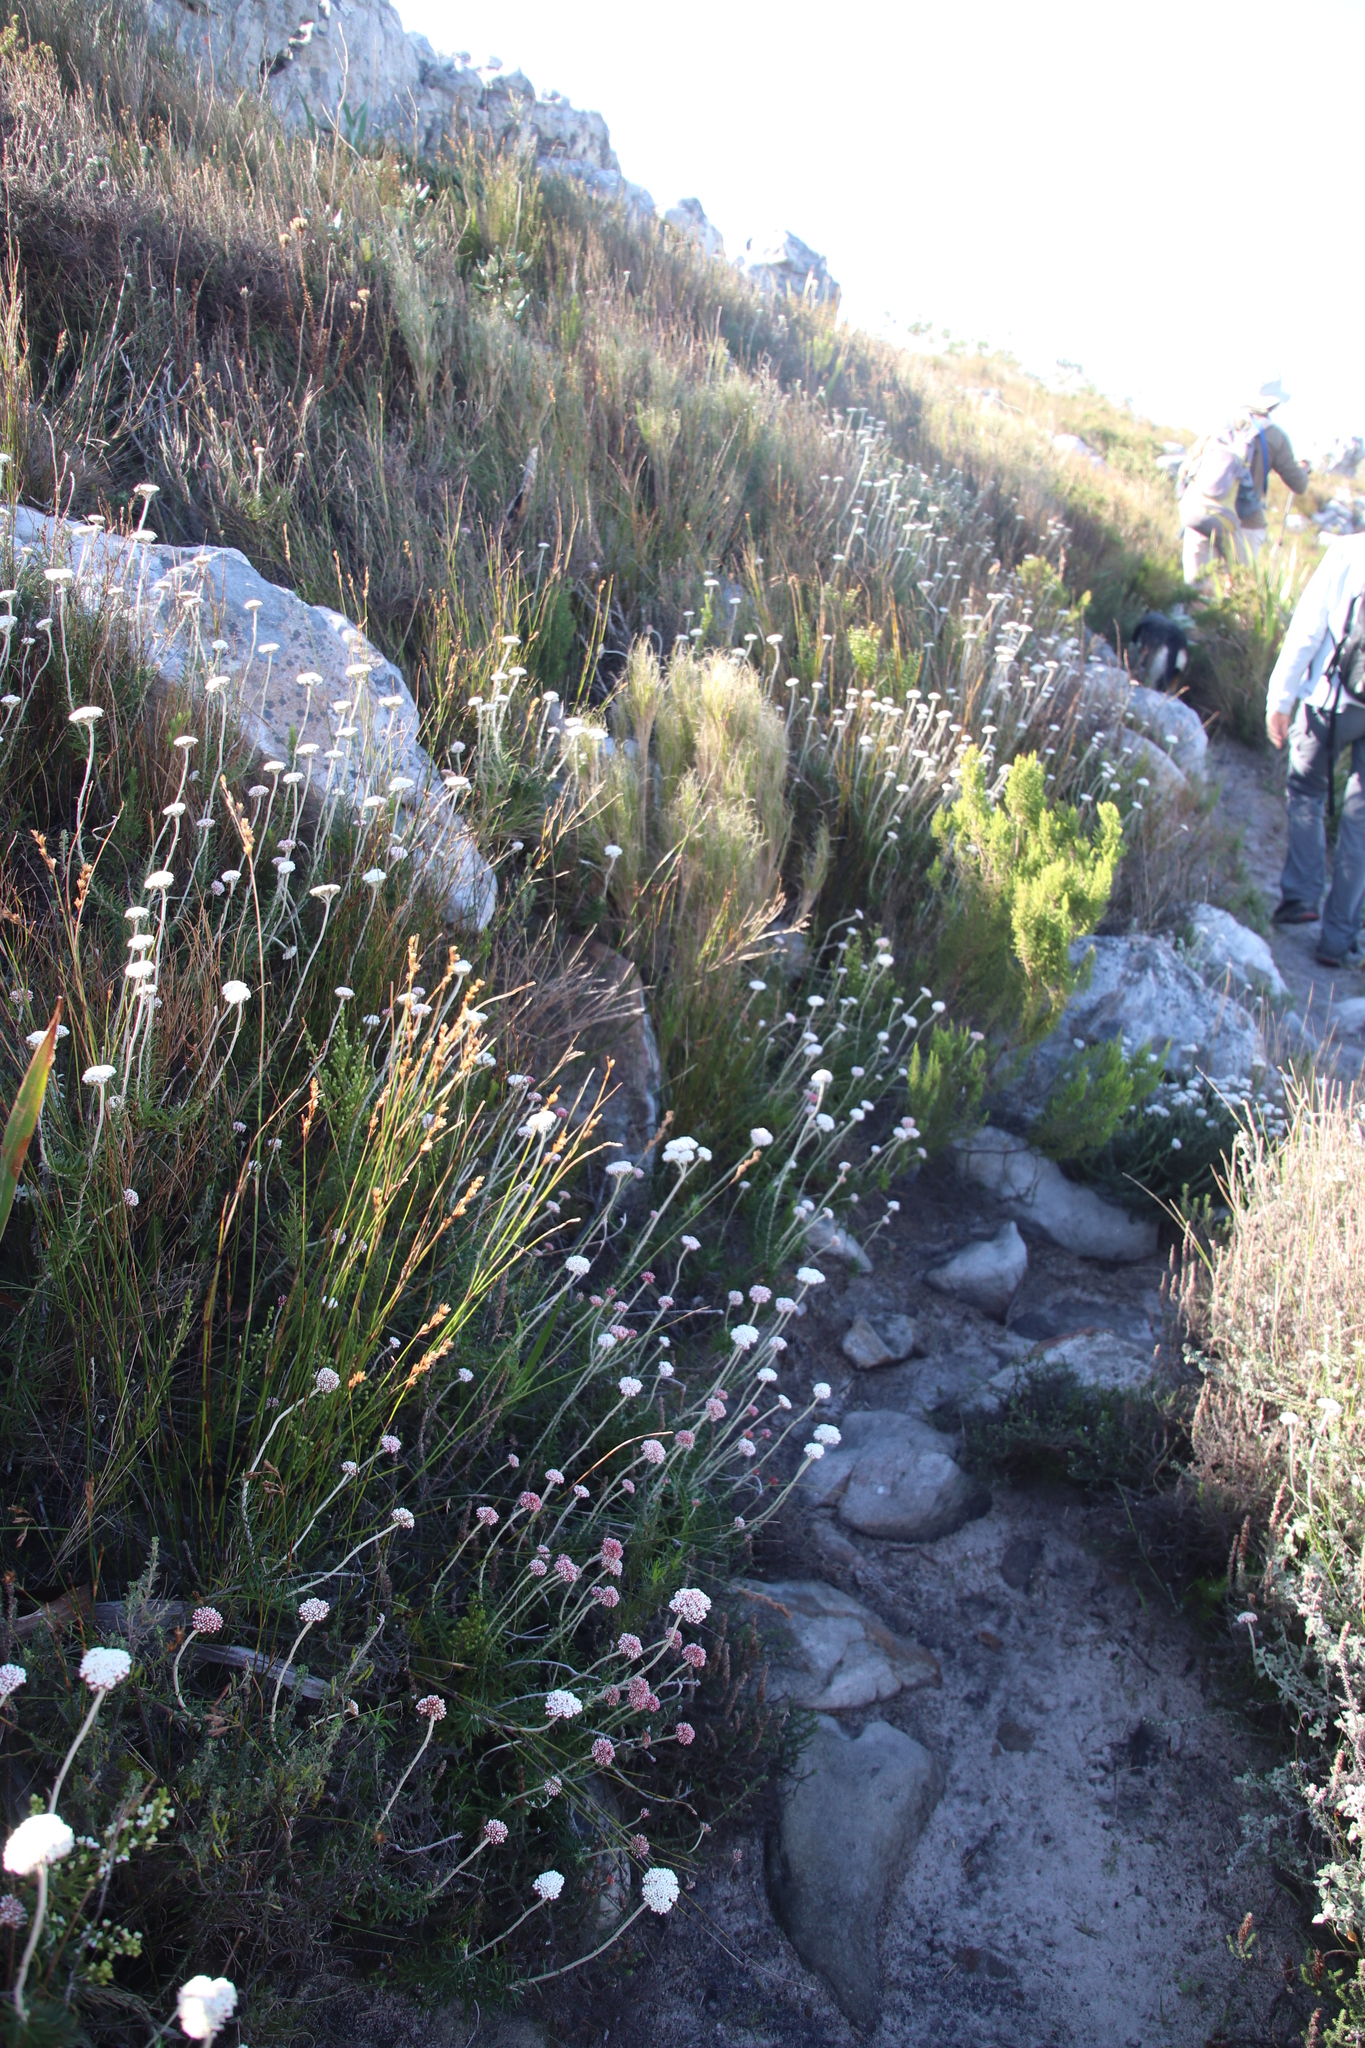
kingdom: Plantae
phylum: Tracheophyta
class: Magnoliopsida
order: Asterales
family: Asteraceae
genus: Anaxeton
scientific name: Anaxeton arborescens
